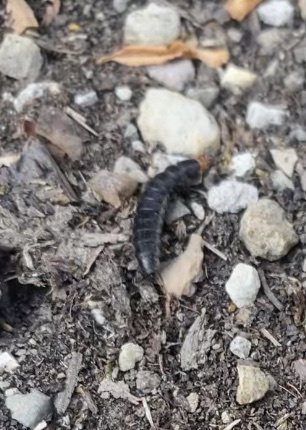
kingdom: Animalia
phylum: Arthropoda
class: Insecta
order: Coleoptera
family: Carabidae
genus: Carabus
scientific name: Carabus
